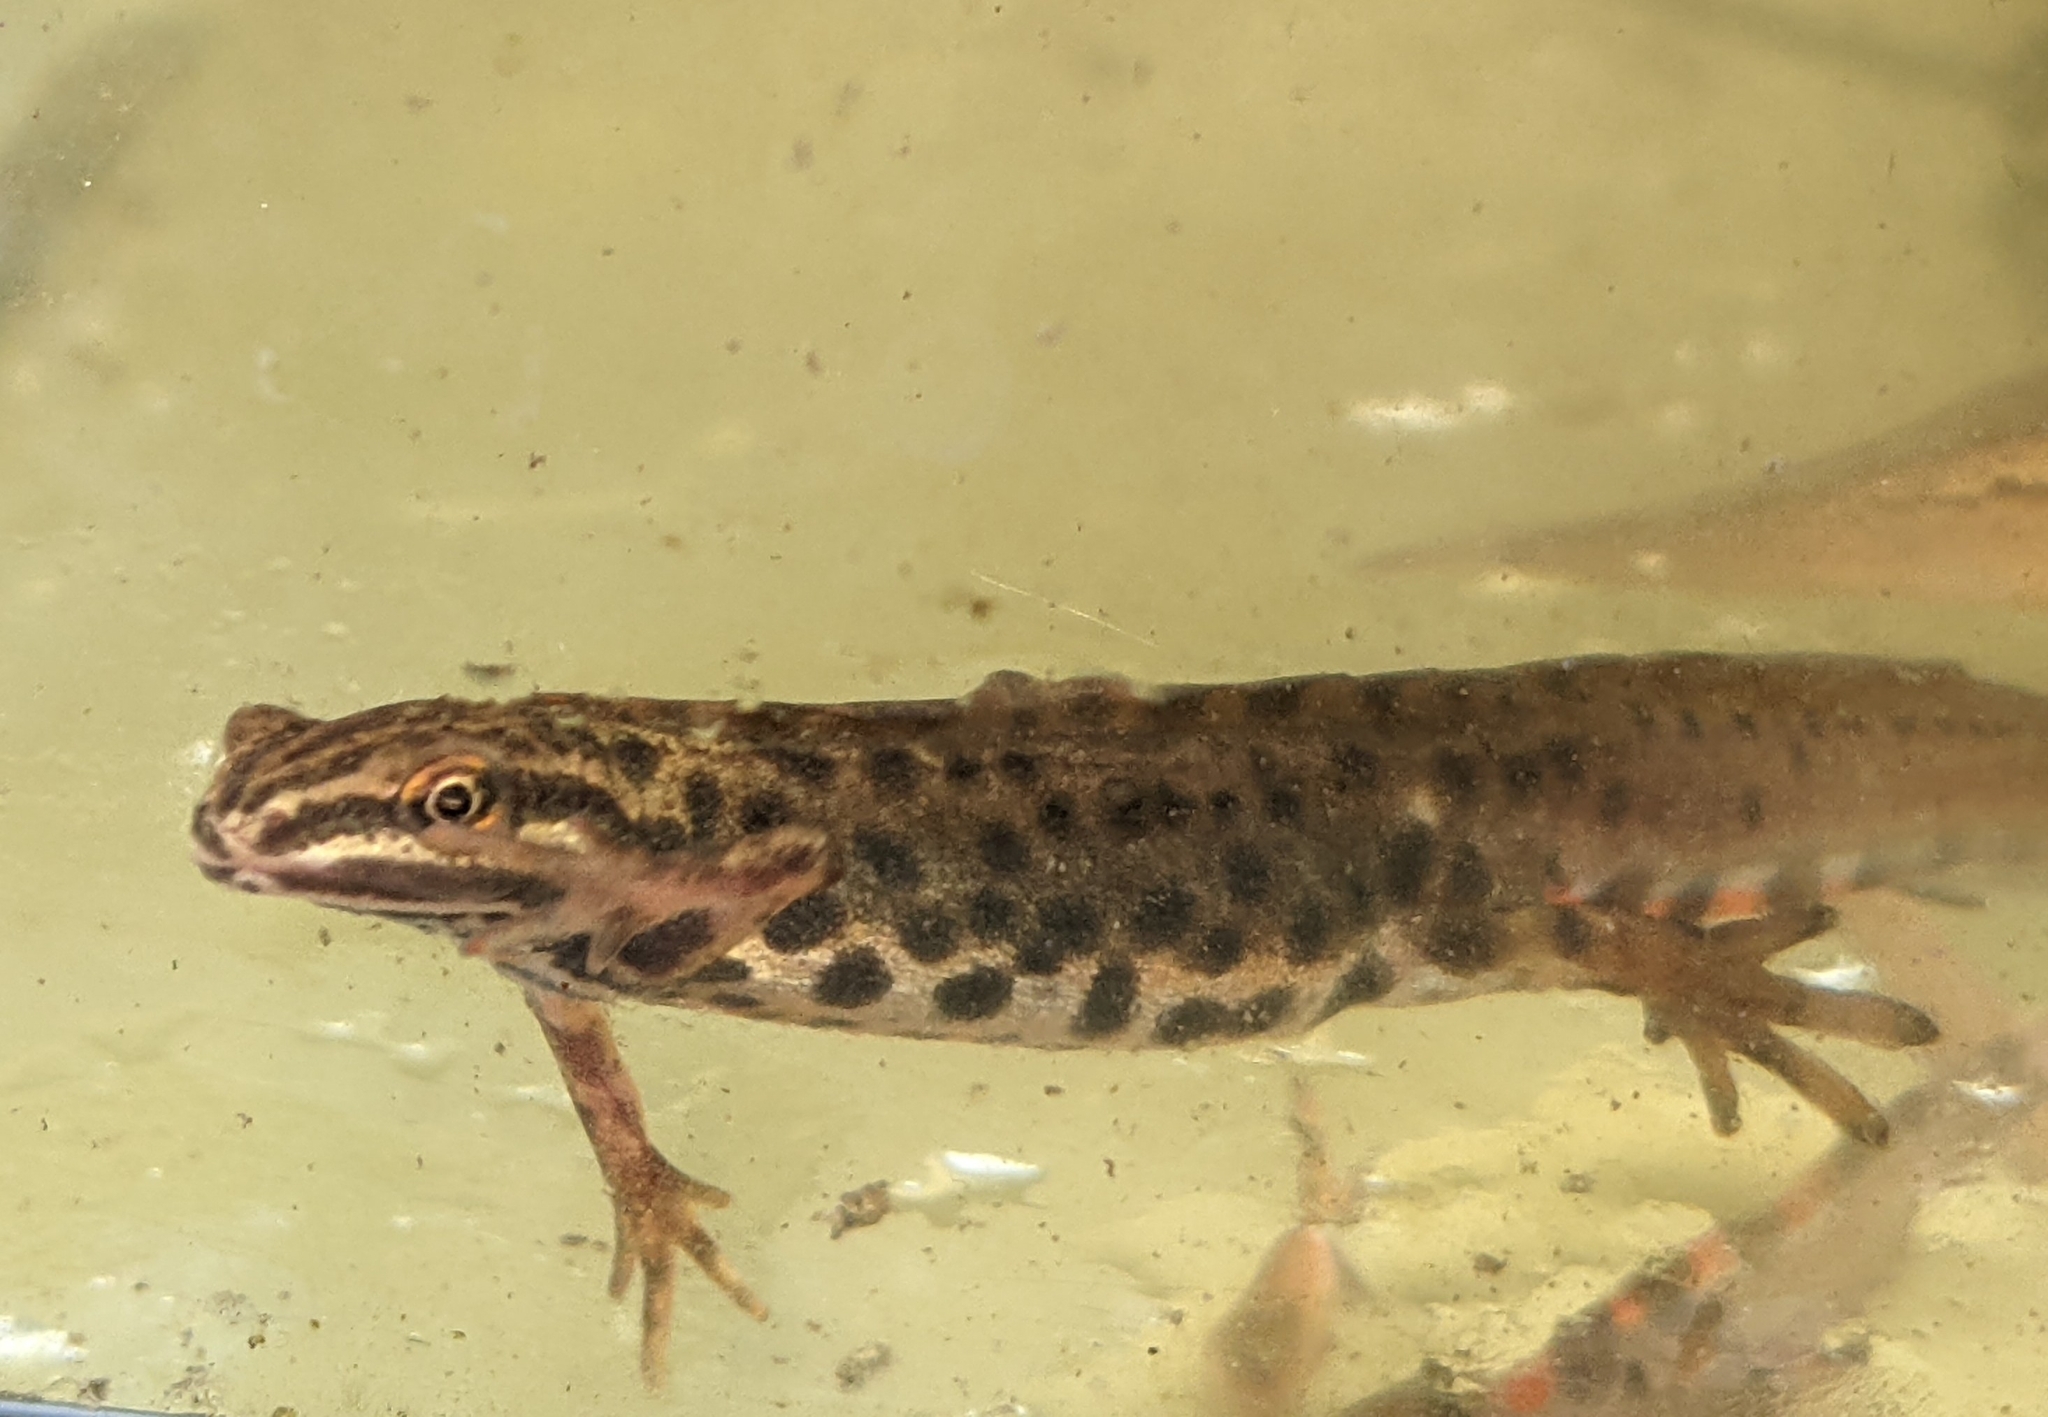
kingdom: Animalia
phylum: Chordata
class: Amphibia
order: Caudata
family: Salamandridae
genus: Lissotriton
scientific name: Lissotriton vulgaris
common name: Smooth newt
